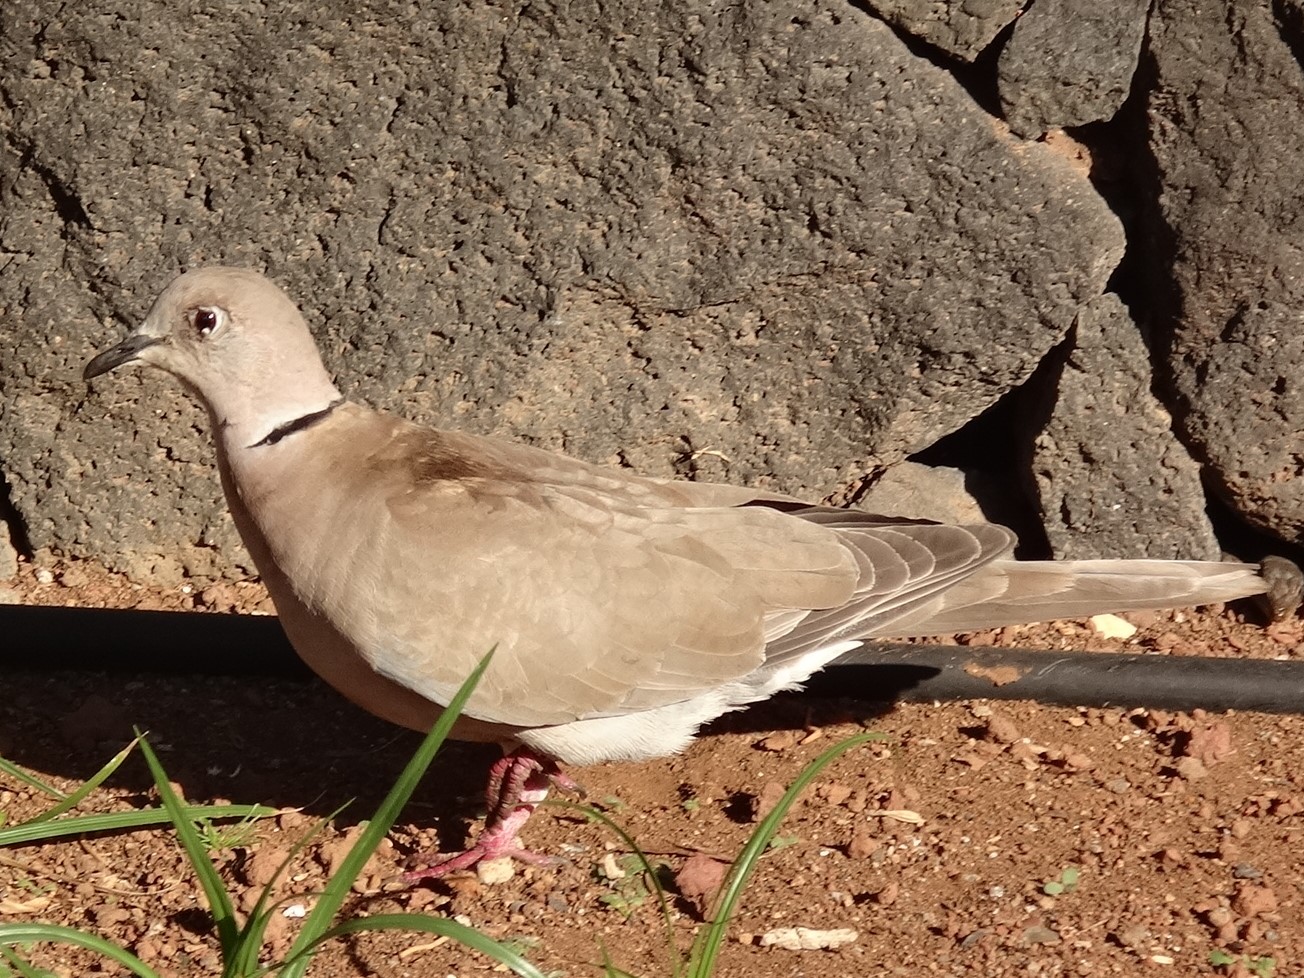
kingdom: Animalia
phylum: Chordata
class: Aves
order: Columbiformes
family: Columbidae
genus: Streptopelia
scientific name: Streptopelia decaocto
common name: Eurasian collared dove
